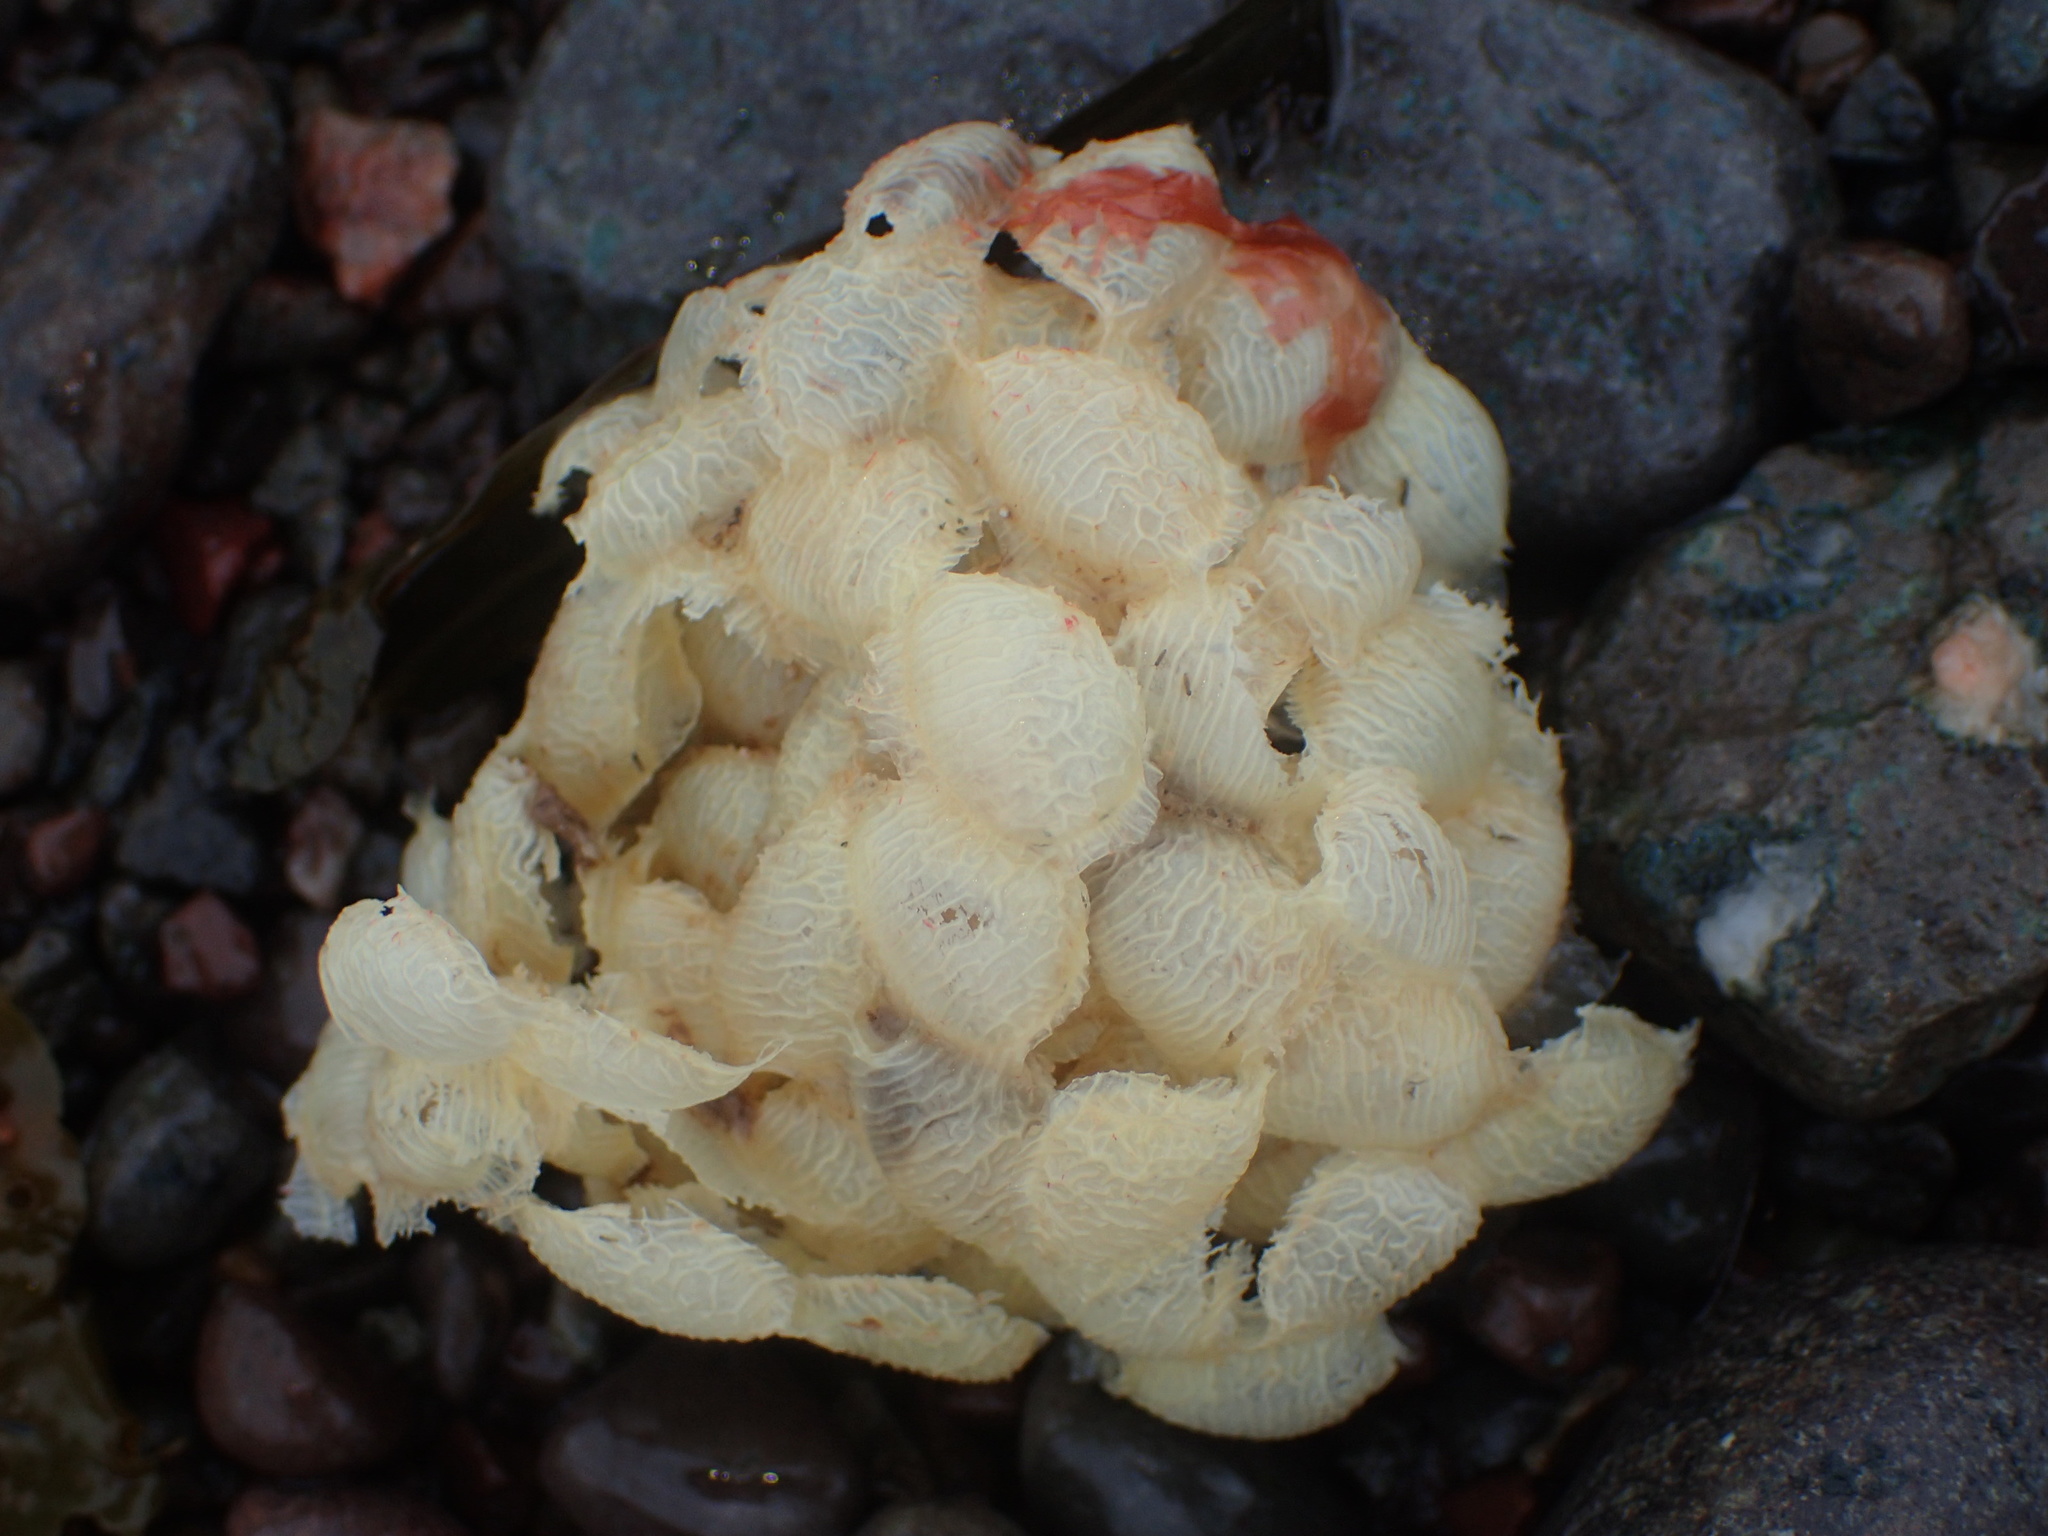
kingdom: Animalia
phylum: Mollusca
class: Gastropoda
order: Neogastropoda
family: Buccinidae
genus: Buccinum
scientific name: Buccinum undatum
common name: Common whelk
